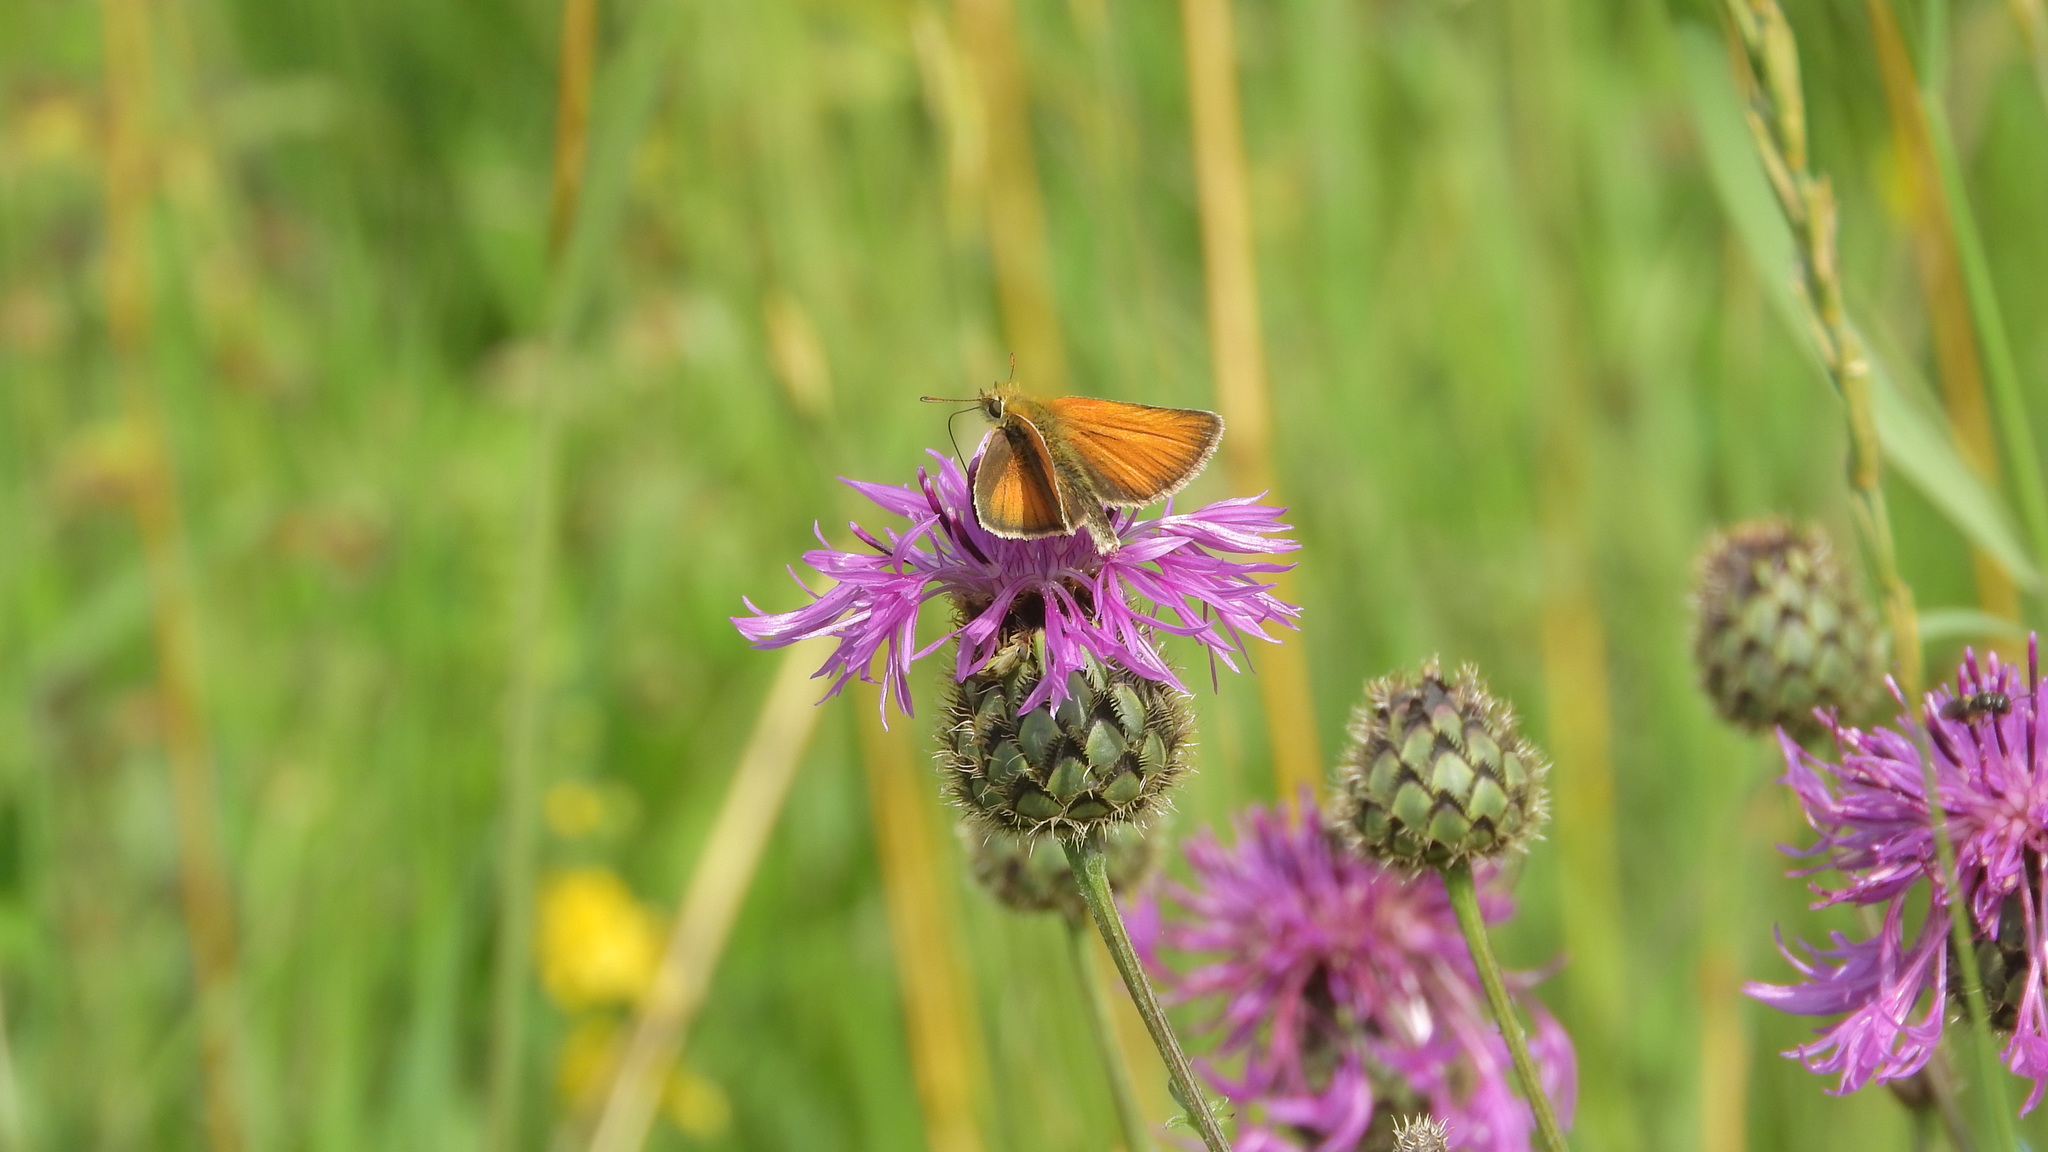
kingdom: Animalia
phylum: Arthropoda
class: Insecta
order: Lepidoptera
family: Hesperiidae
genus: Thymelicus
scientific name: Thymelicus lineola
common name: Essex skipper
